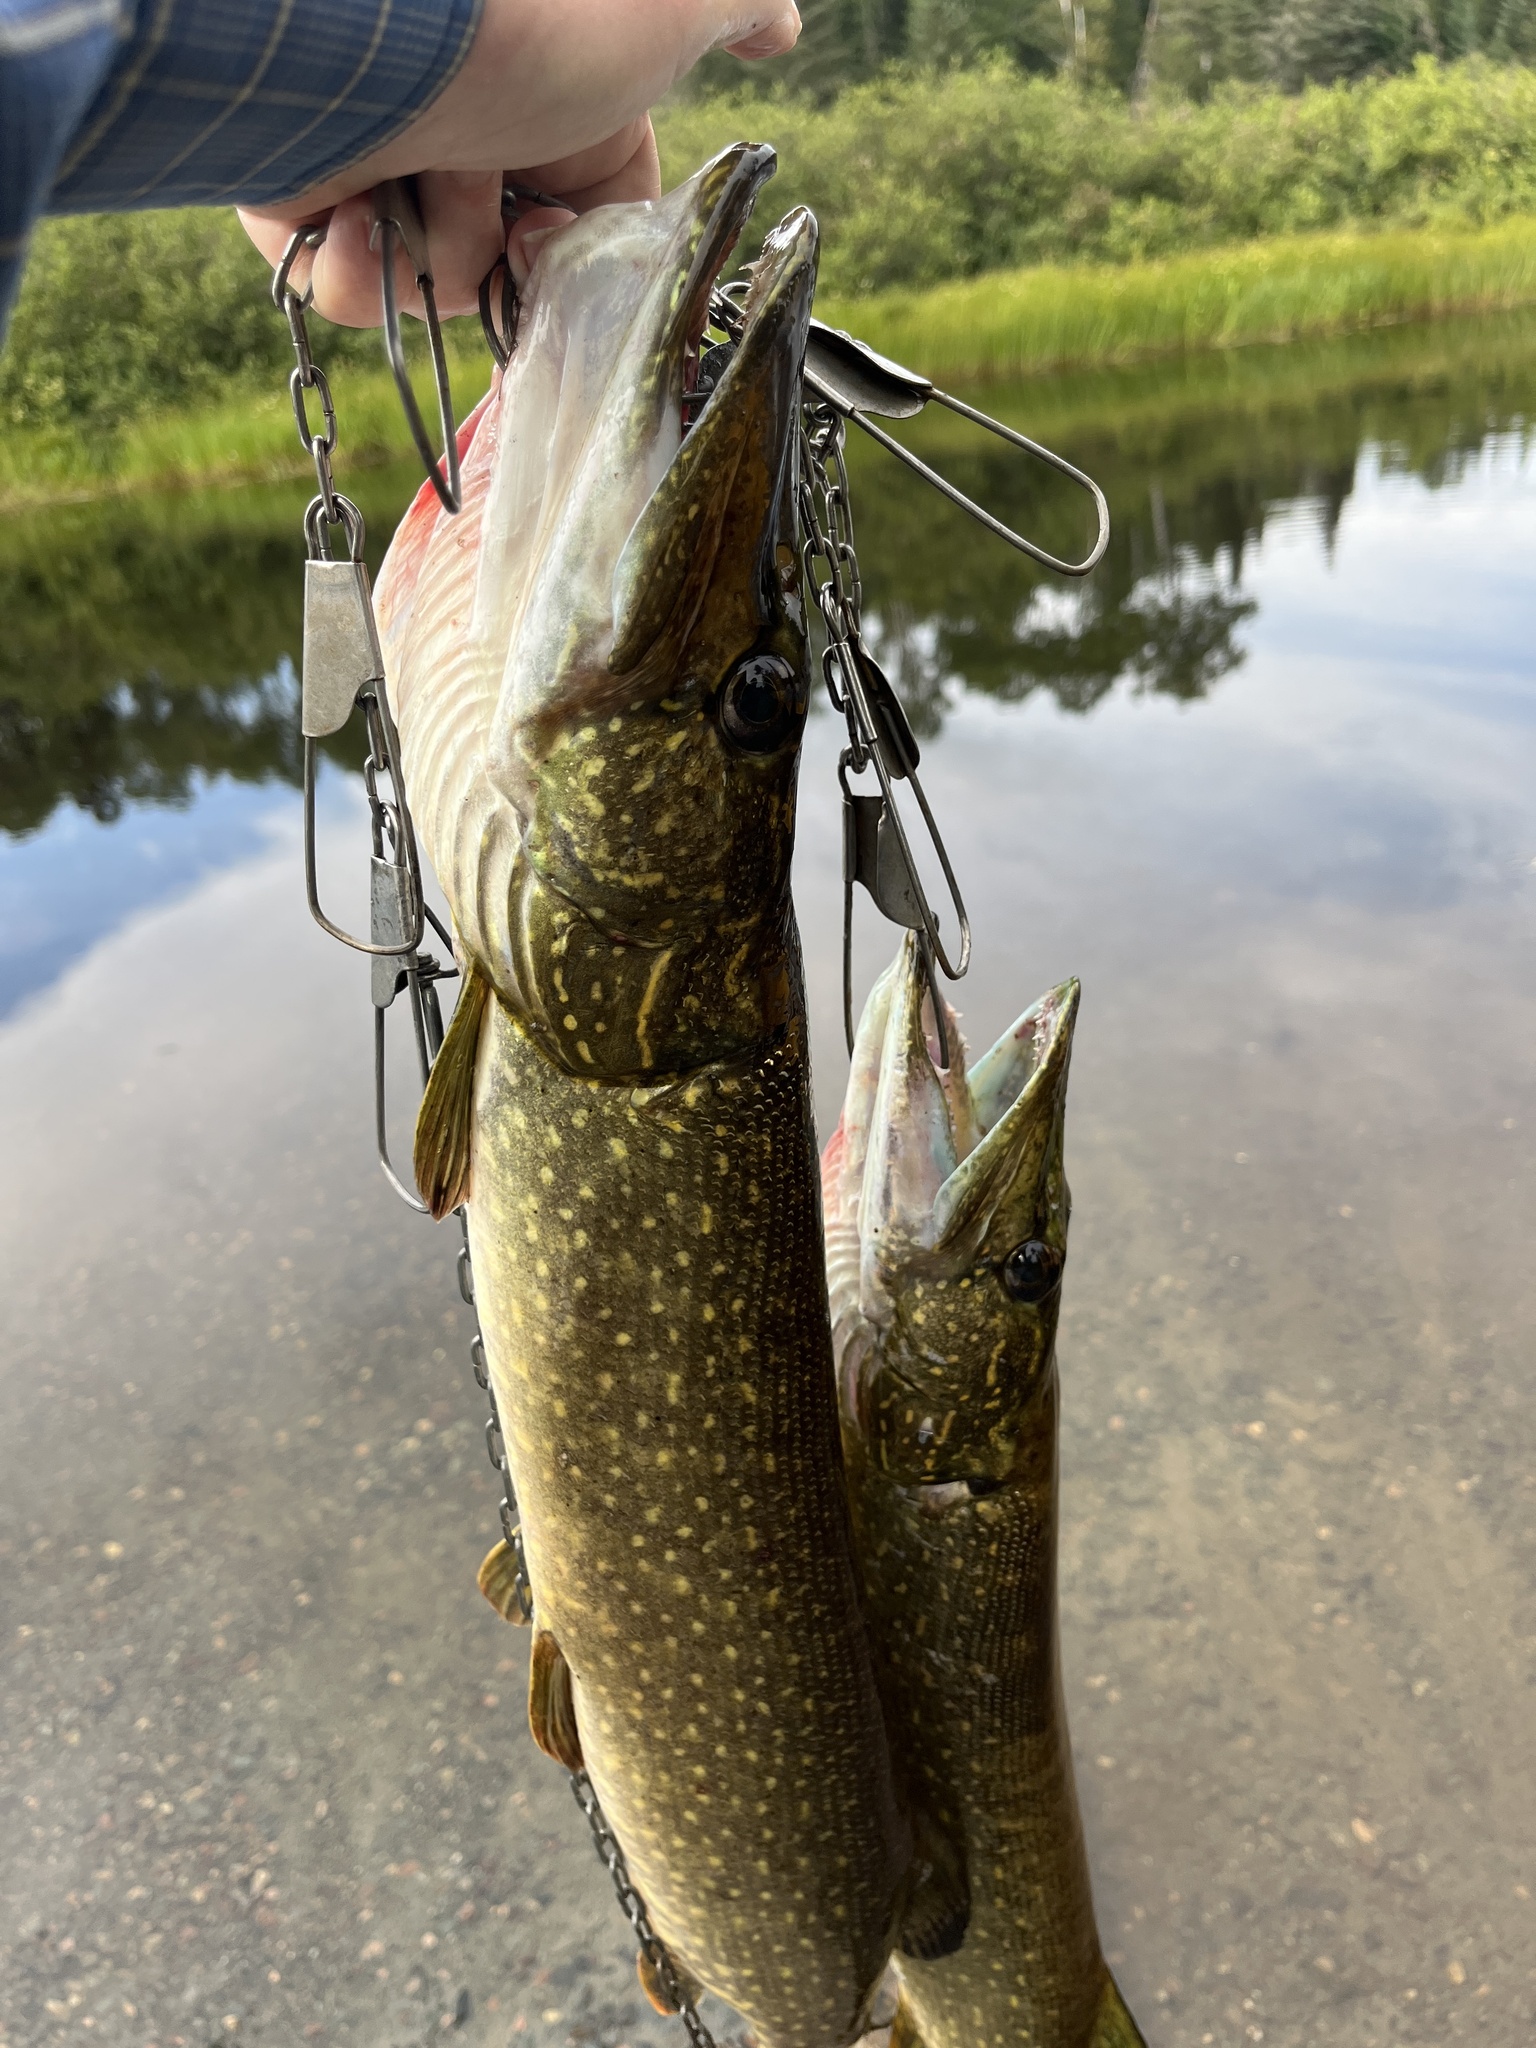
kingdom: Animalia
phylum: Chordata
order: Esociformes
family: Esocidae
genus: Esox
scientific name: Esox lucius
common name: Northern pike
